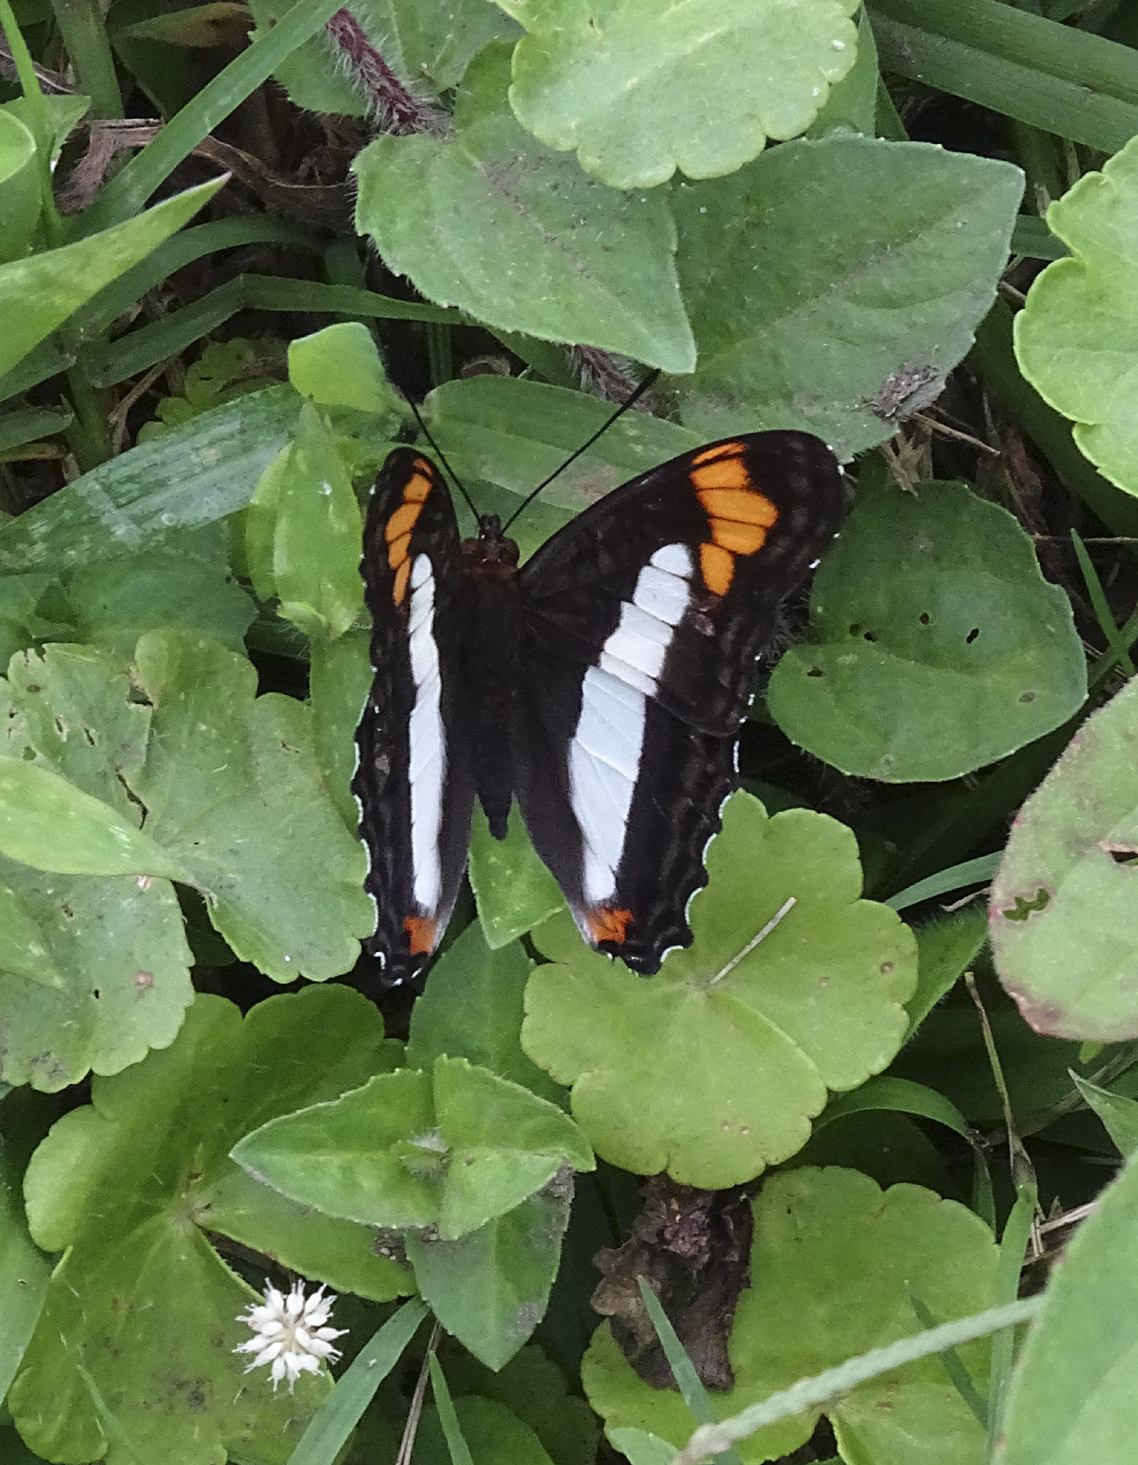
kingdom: Animalia
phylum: Arthropoda
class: Insecta
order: Lepidoptera
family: Nymphalidae
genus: Limenitis
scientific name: Limenitis paroeca
